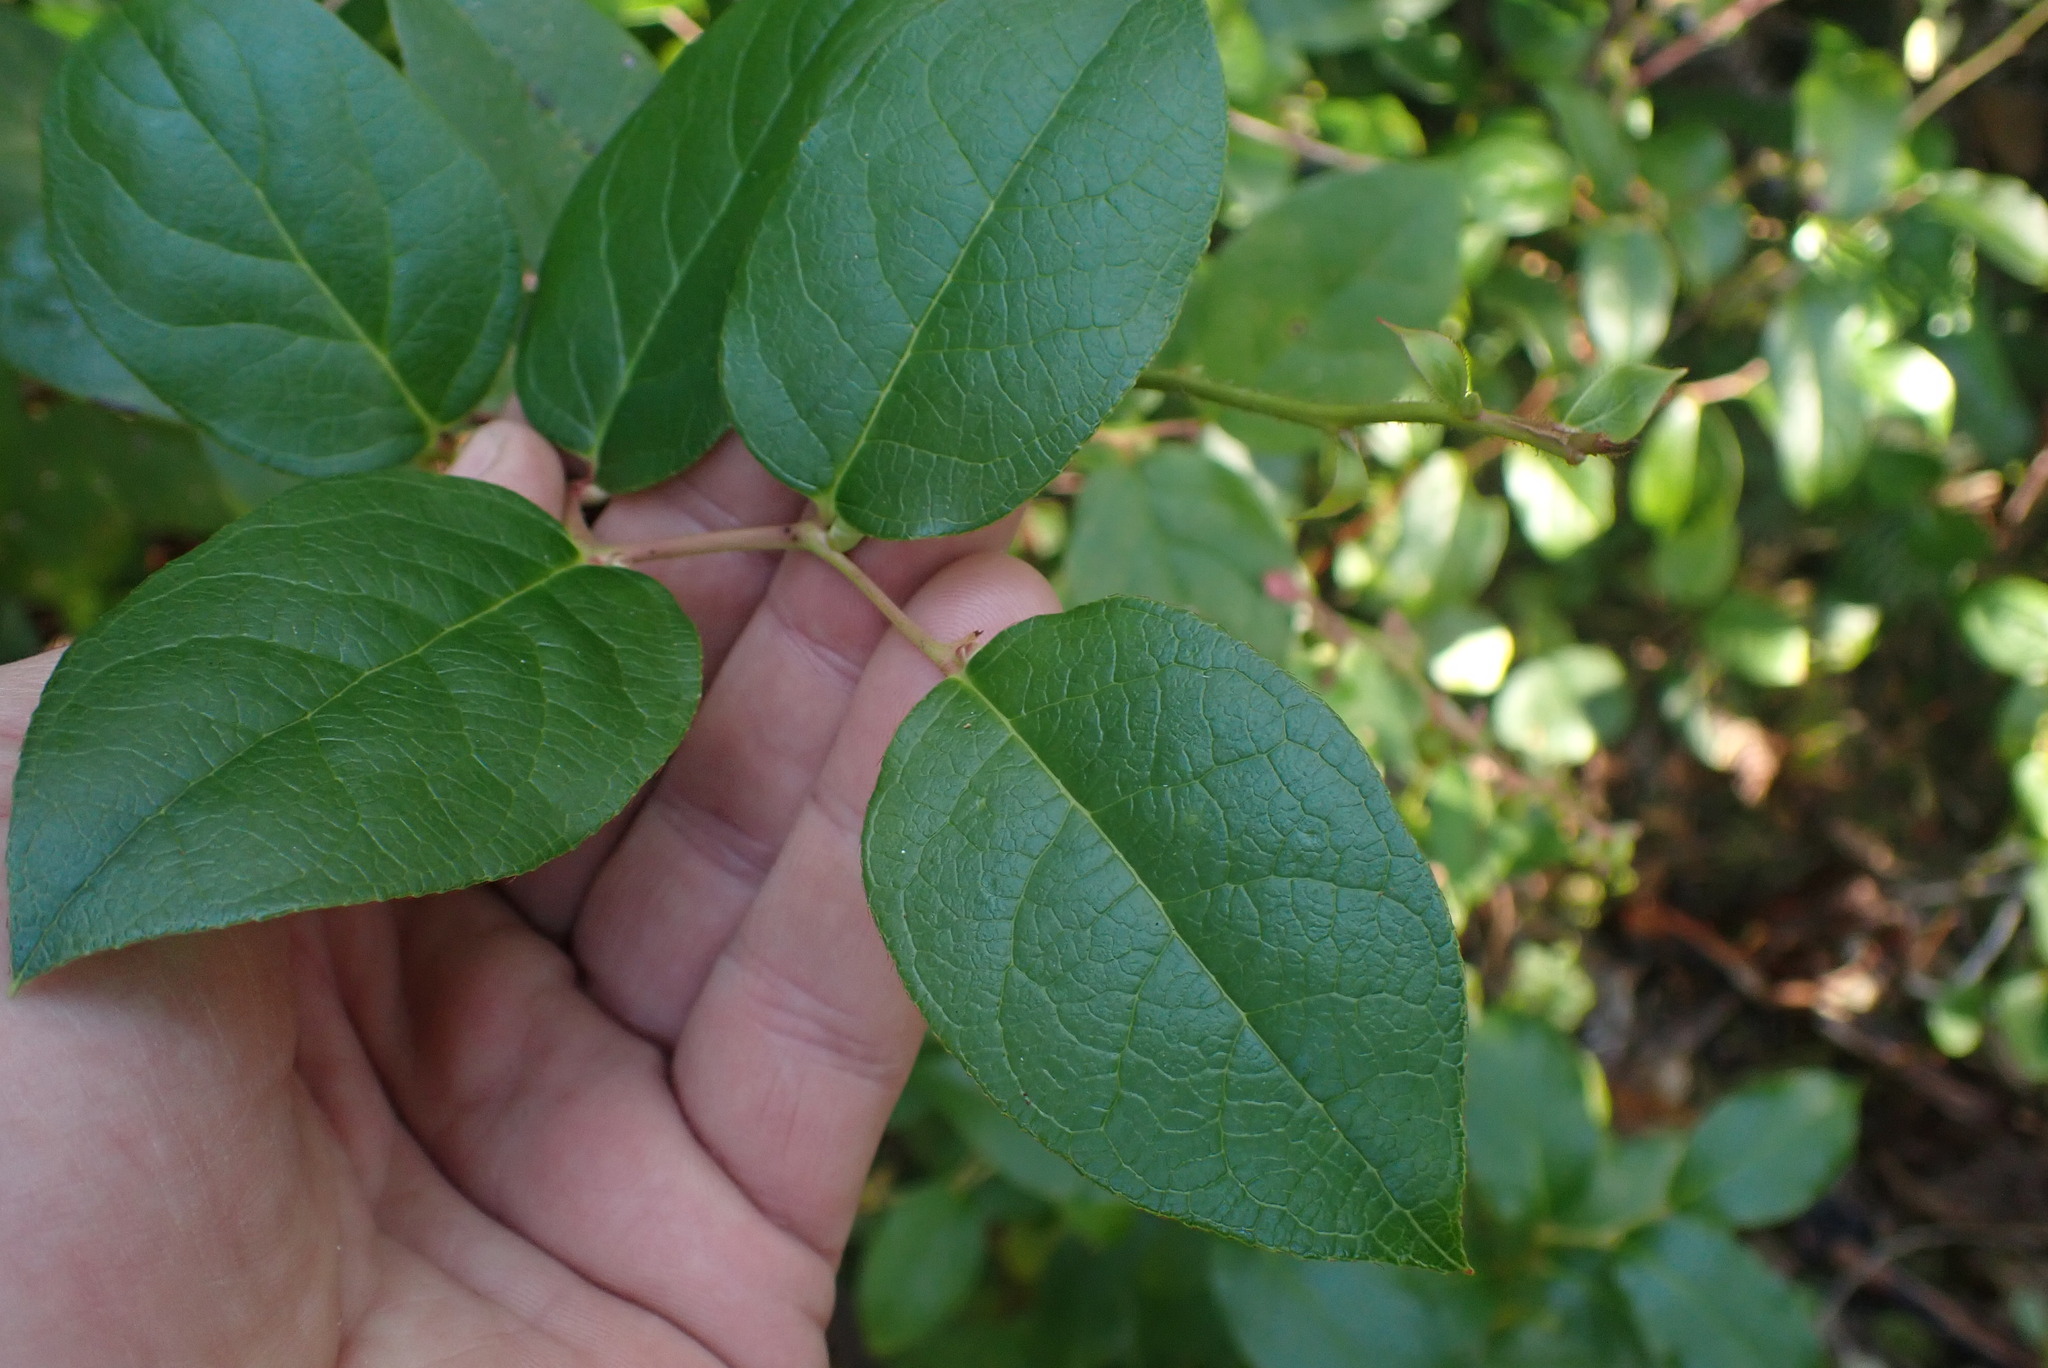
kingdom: Plantae
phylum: Tracheophyta
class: Magnoliopsida
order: Ericales
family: Ericaceae
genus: Gaultheria
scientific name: Gaultheria shallon
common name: Shallon
